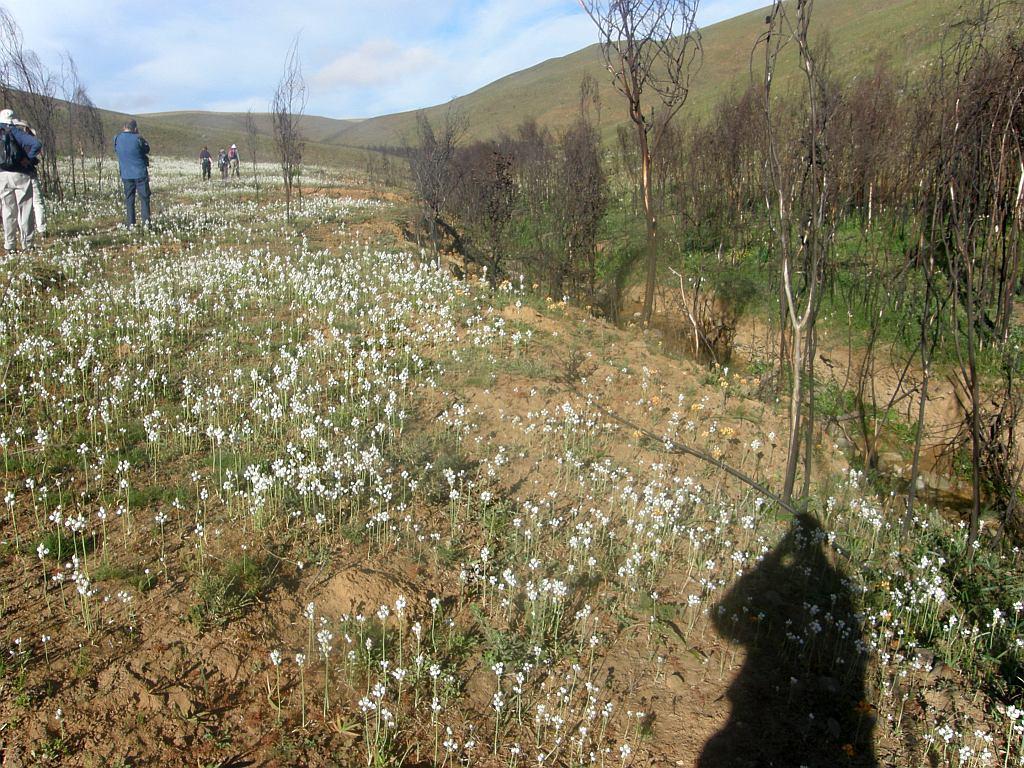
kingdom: Plantae
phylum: Tracheophyta
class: Liliopsida
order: Asparagales
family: Asparagaceae
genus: Ornithogalum
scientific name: Ornithogalum thyrsoides
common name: Chincherinchee
